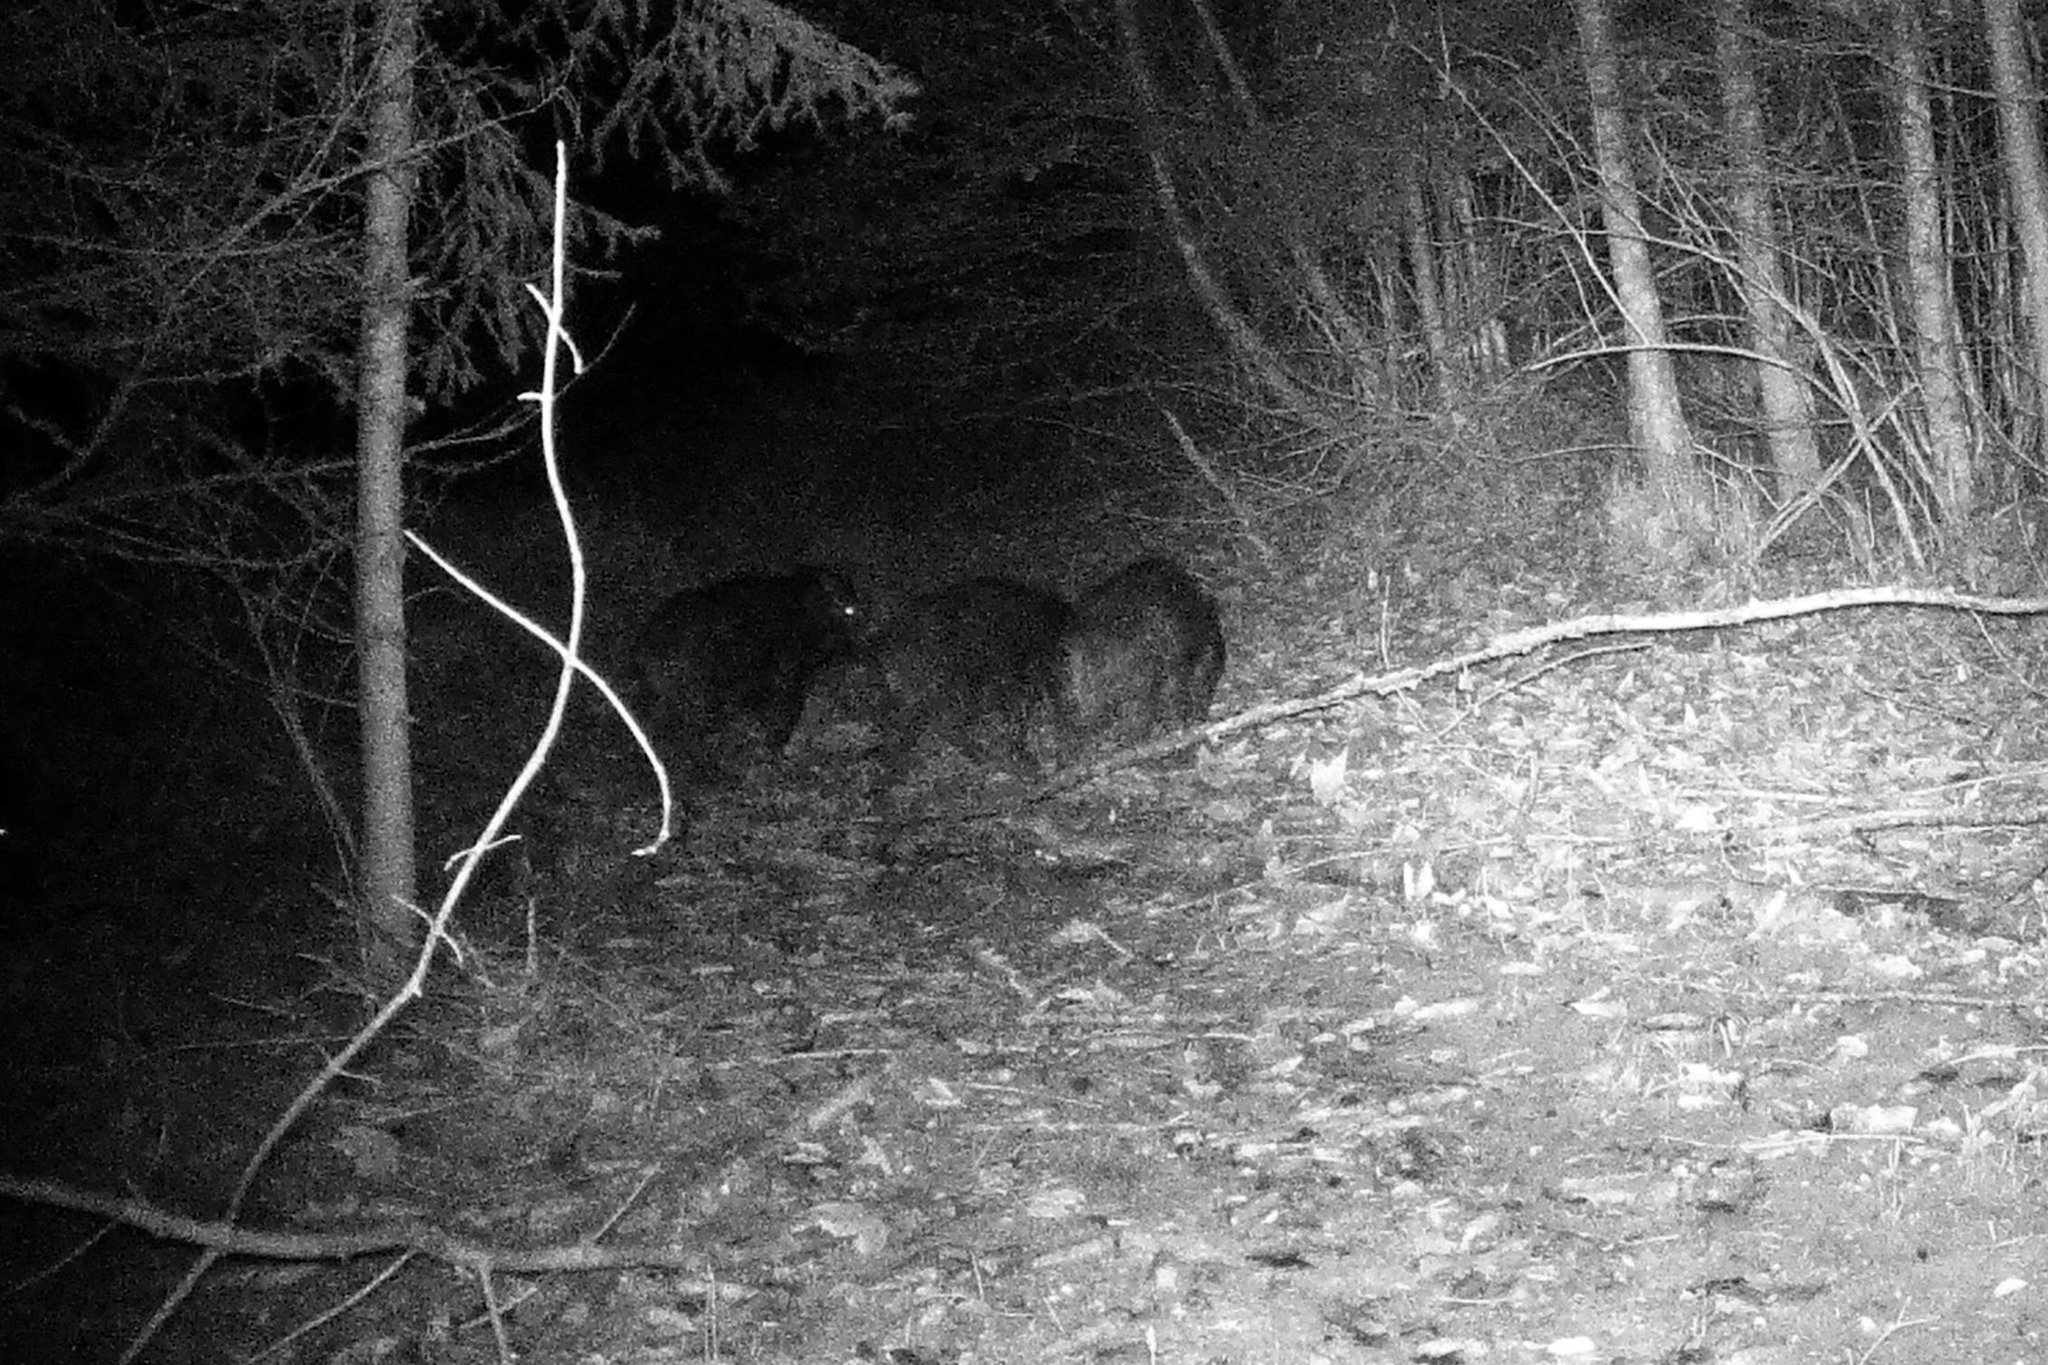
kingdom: Animalia
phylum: Chordata
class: Mammalia
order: Artiodactyla
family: Suidae
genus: Sus
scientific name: Sus scrofa
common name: Wild boar
